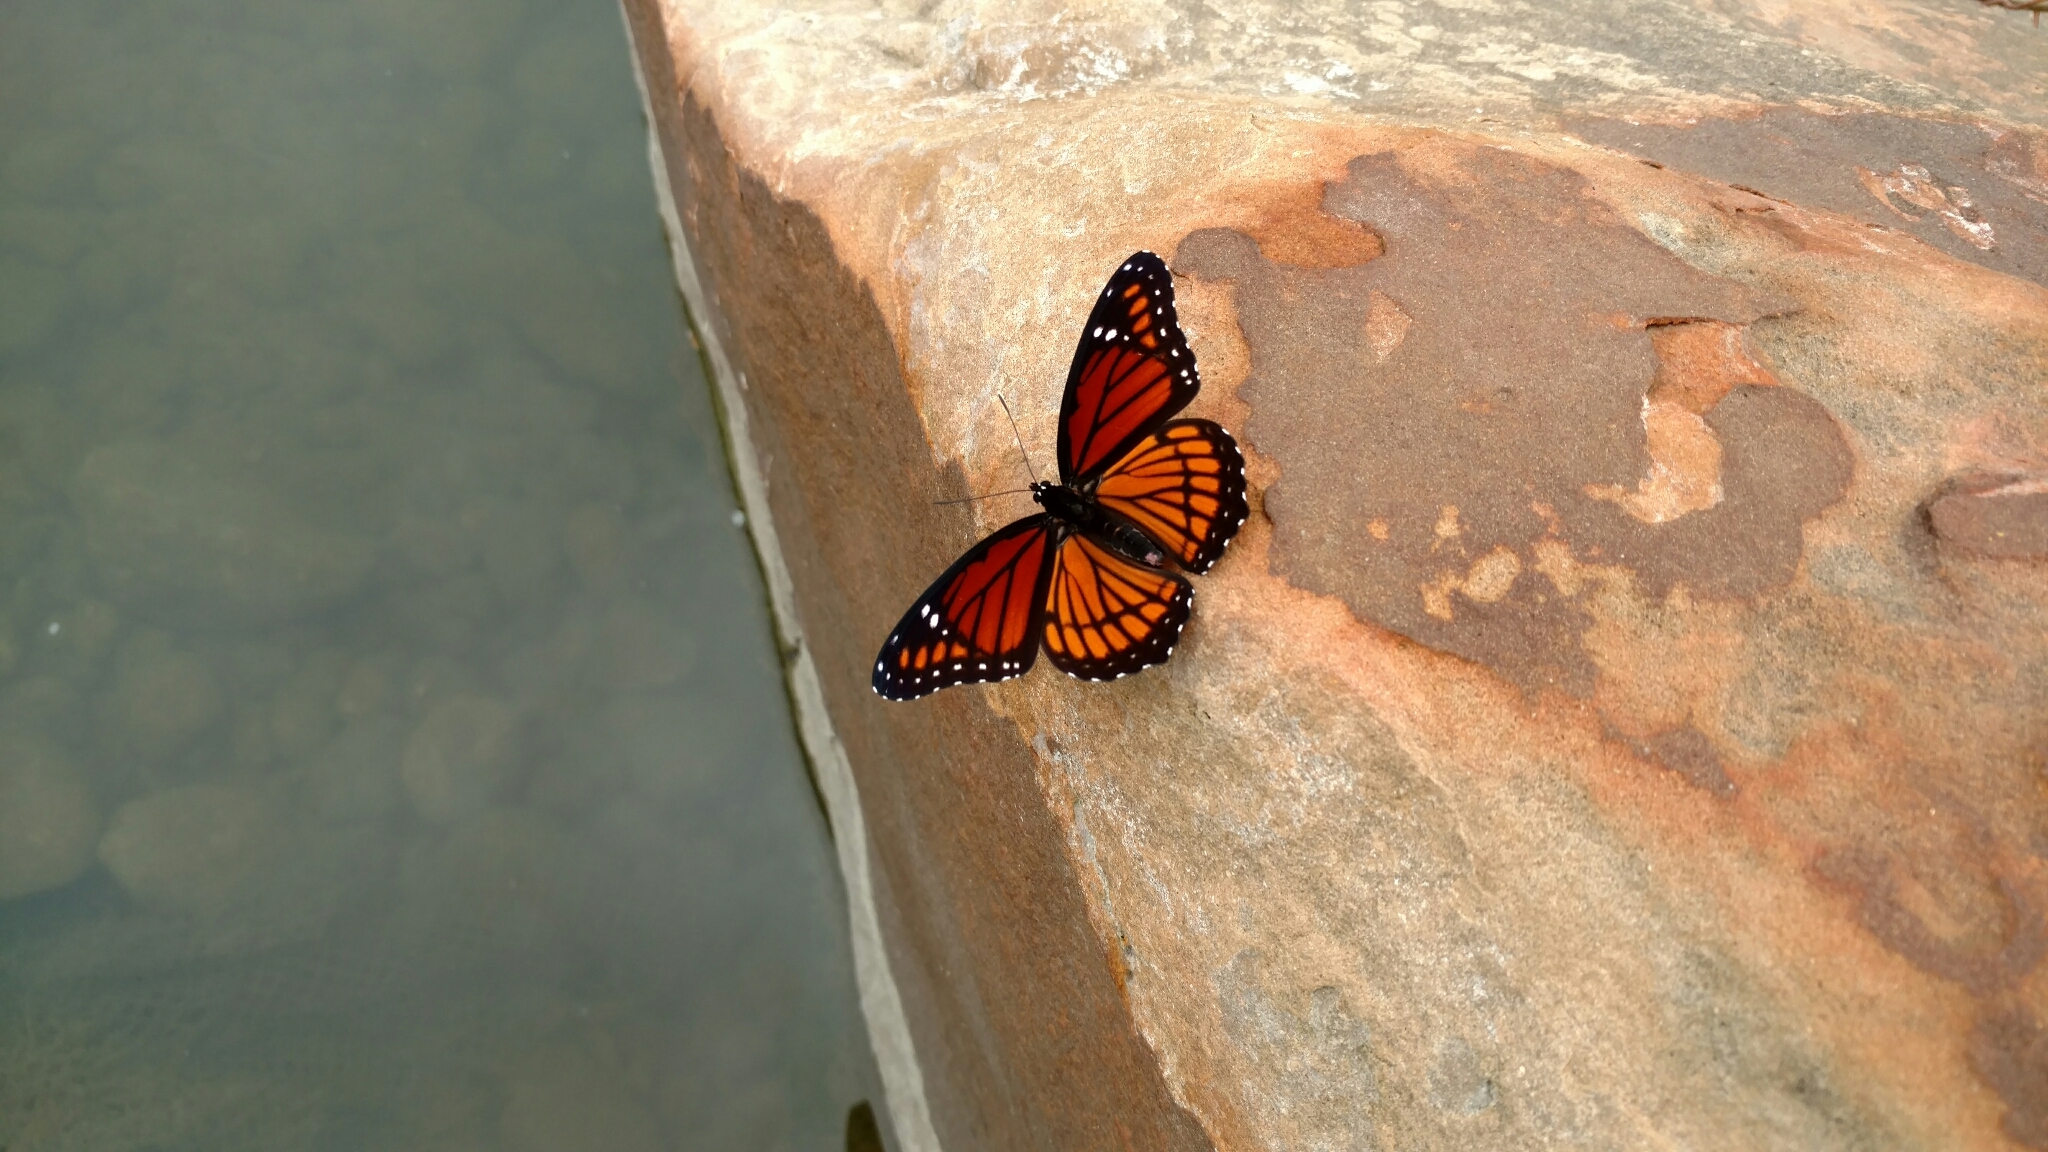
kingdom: Animalia
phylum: Arthropoda
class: Insecta
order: Lepidoptera
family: Nymphalidae
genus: Limenitis
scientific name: Limenitis archippus
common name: Viceroy
